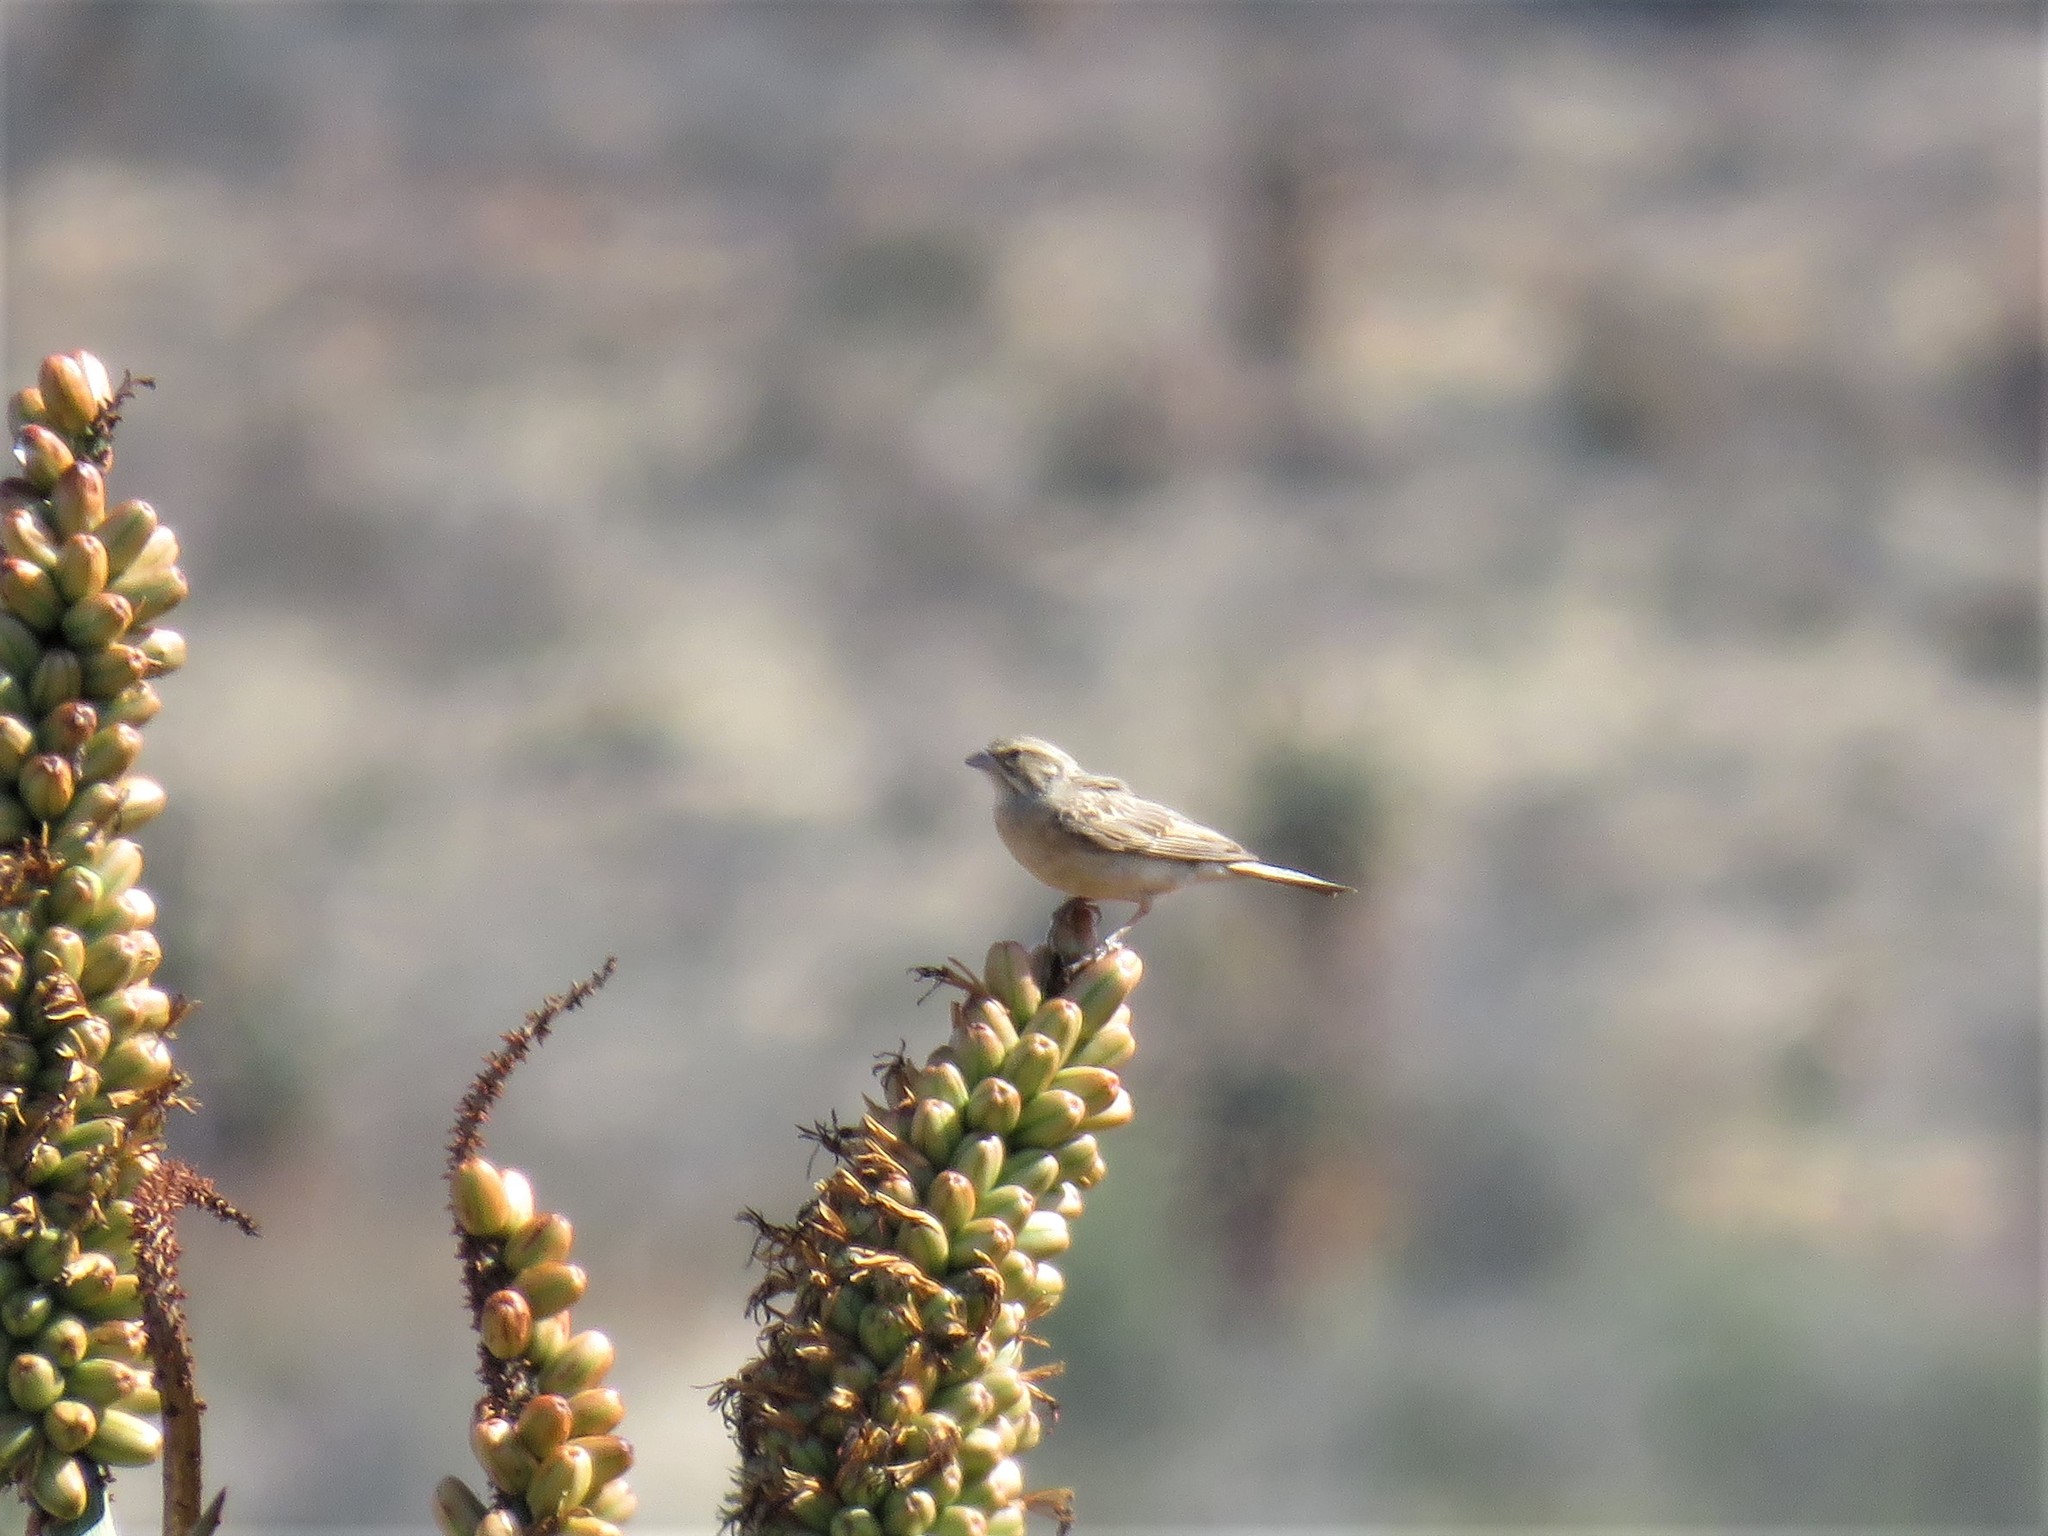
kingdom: Animalia
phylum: Chordata
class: Aves
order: Passeriformes
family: Emberizidae
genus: Emberiza
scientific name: Emberiza impetuani
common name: Lark-like bunting
